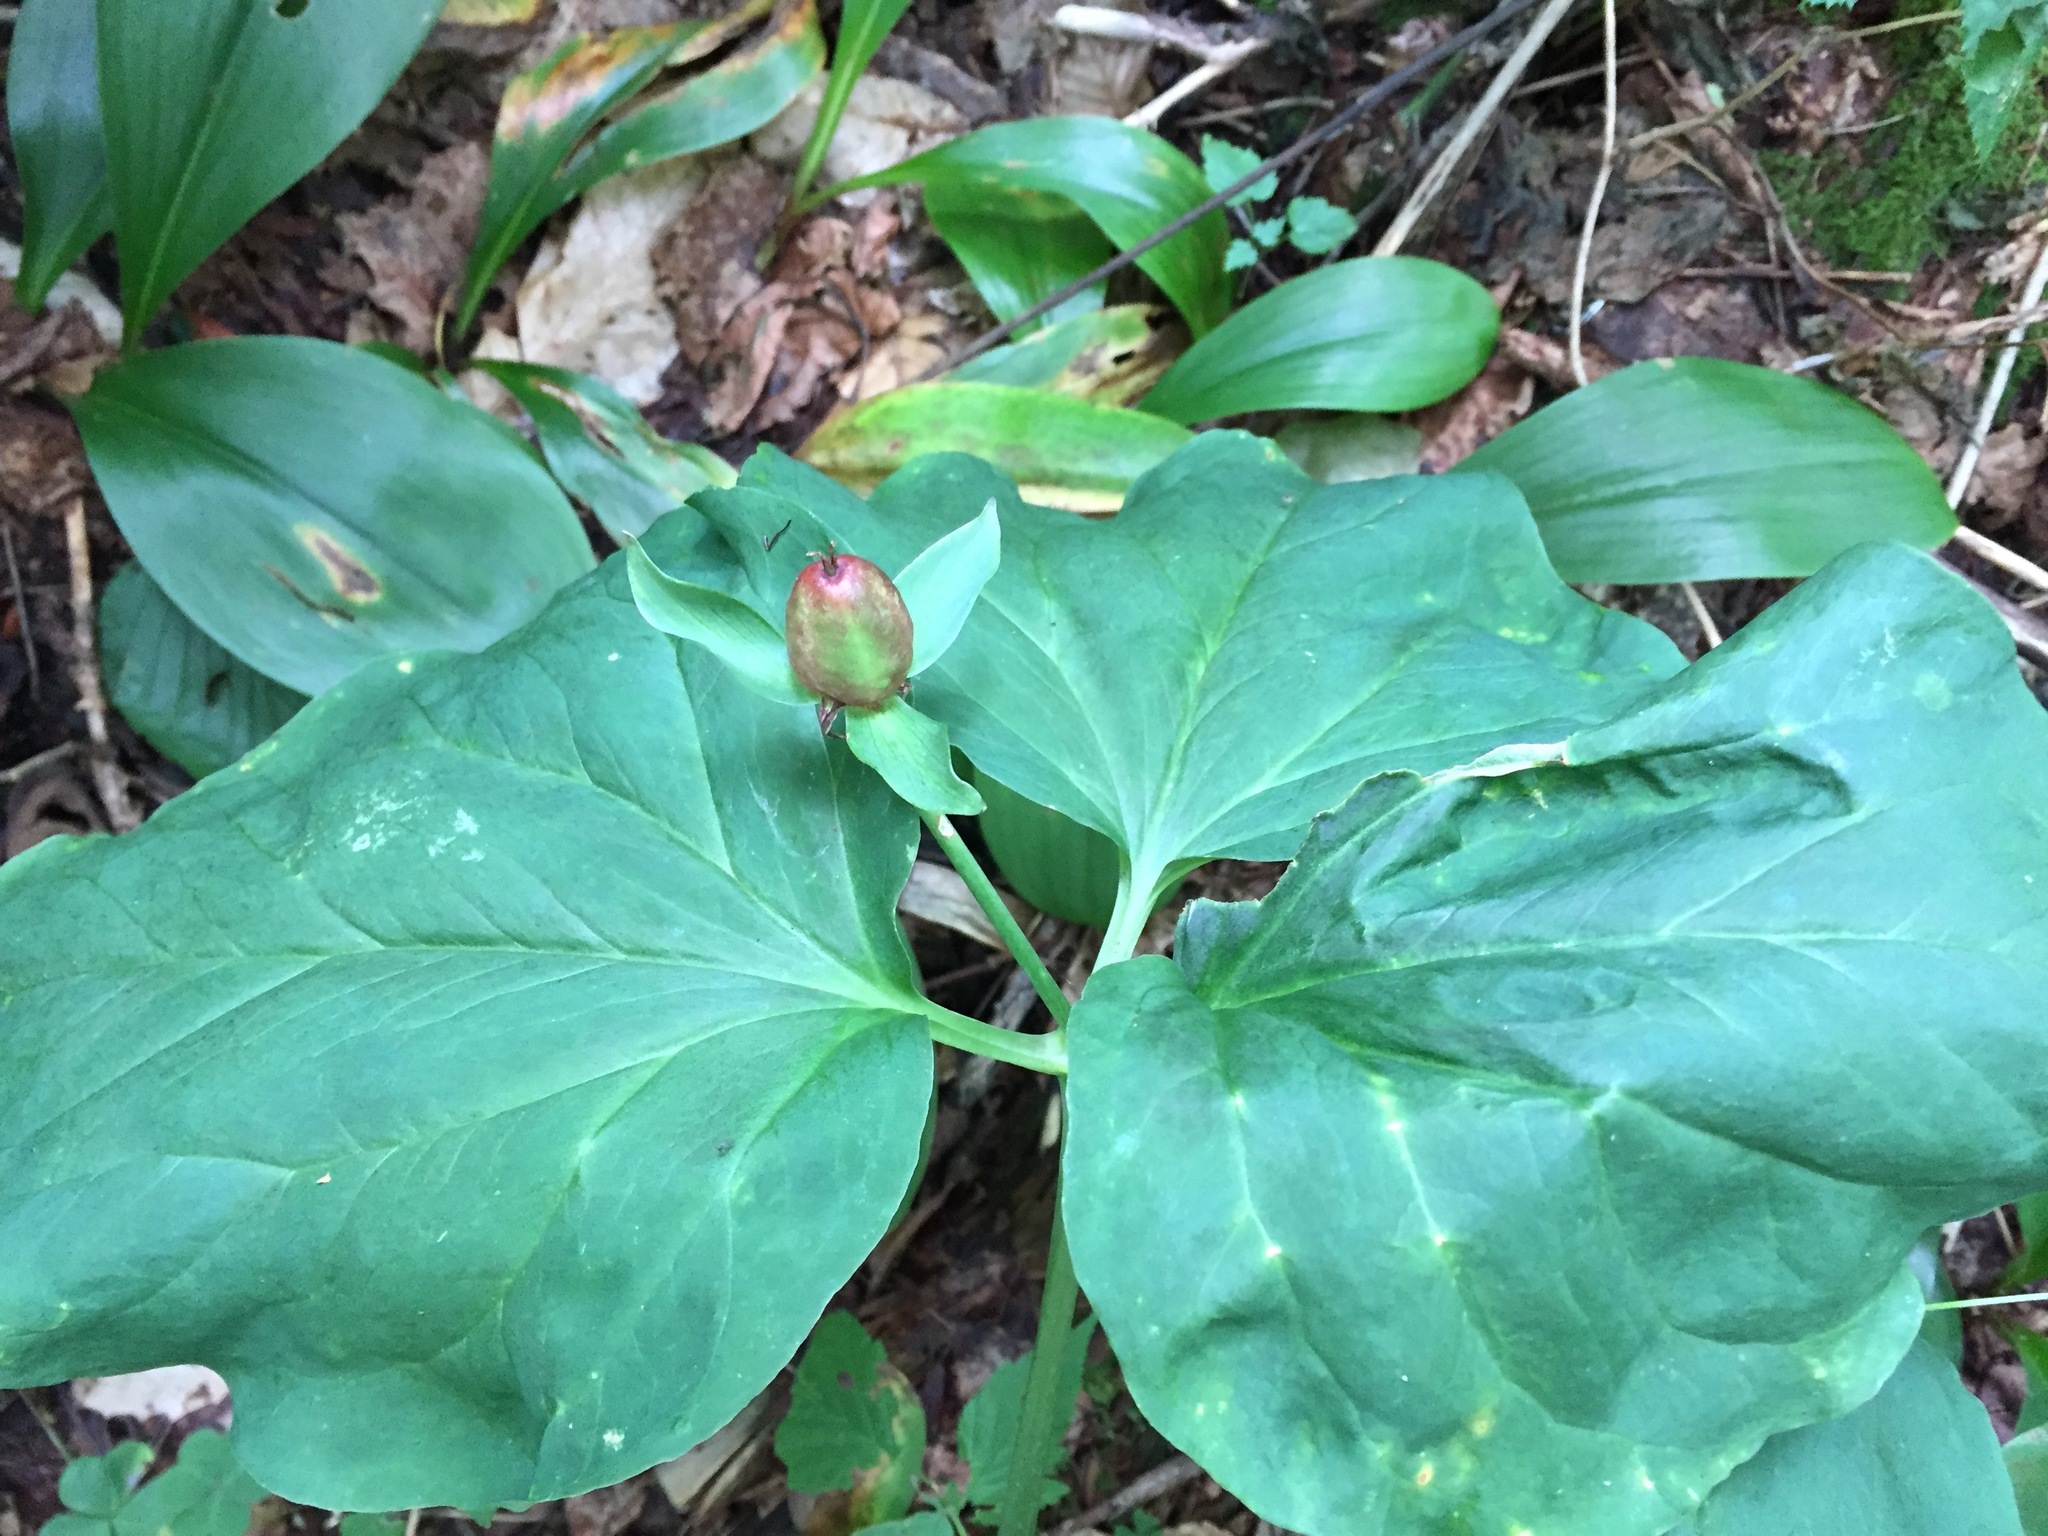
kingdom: Plantae
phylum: Tracheophyta
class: Liliopsida
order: Liliales
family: Melanthiaceae
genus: Trillium
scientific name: Trillium undulatum
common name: Paint trillium
